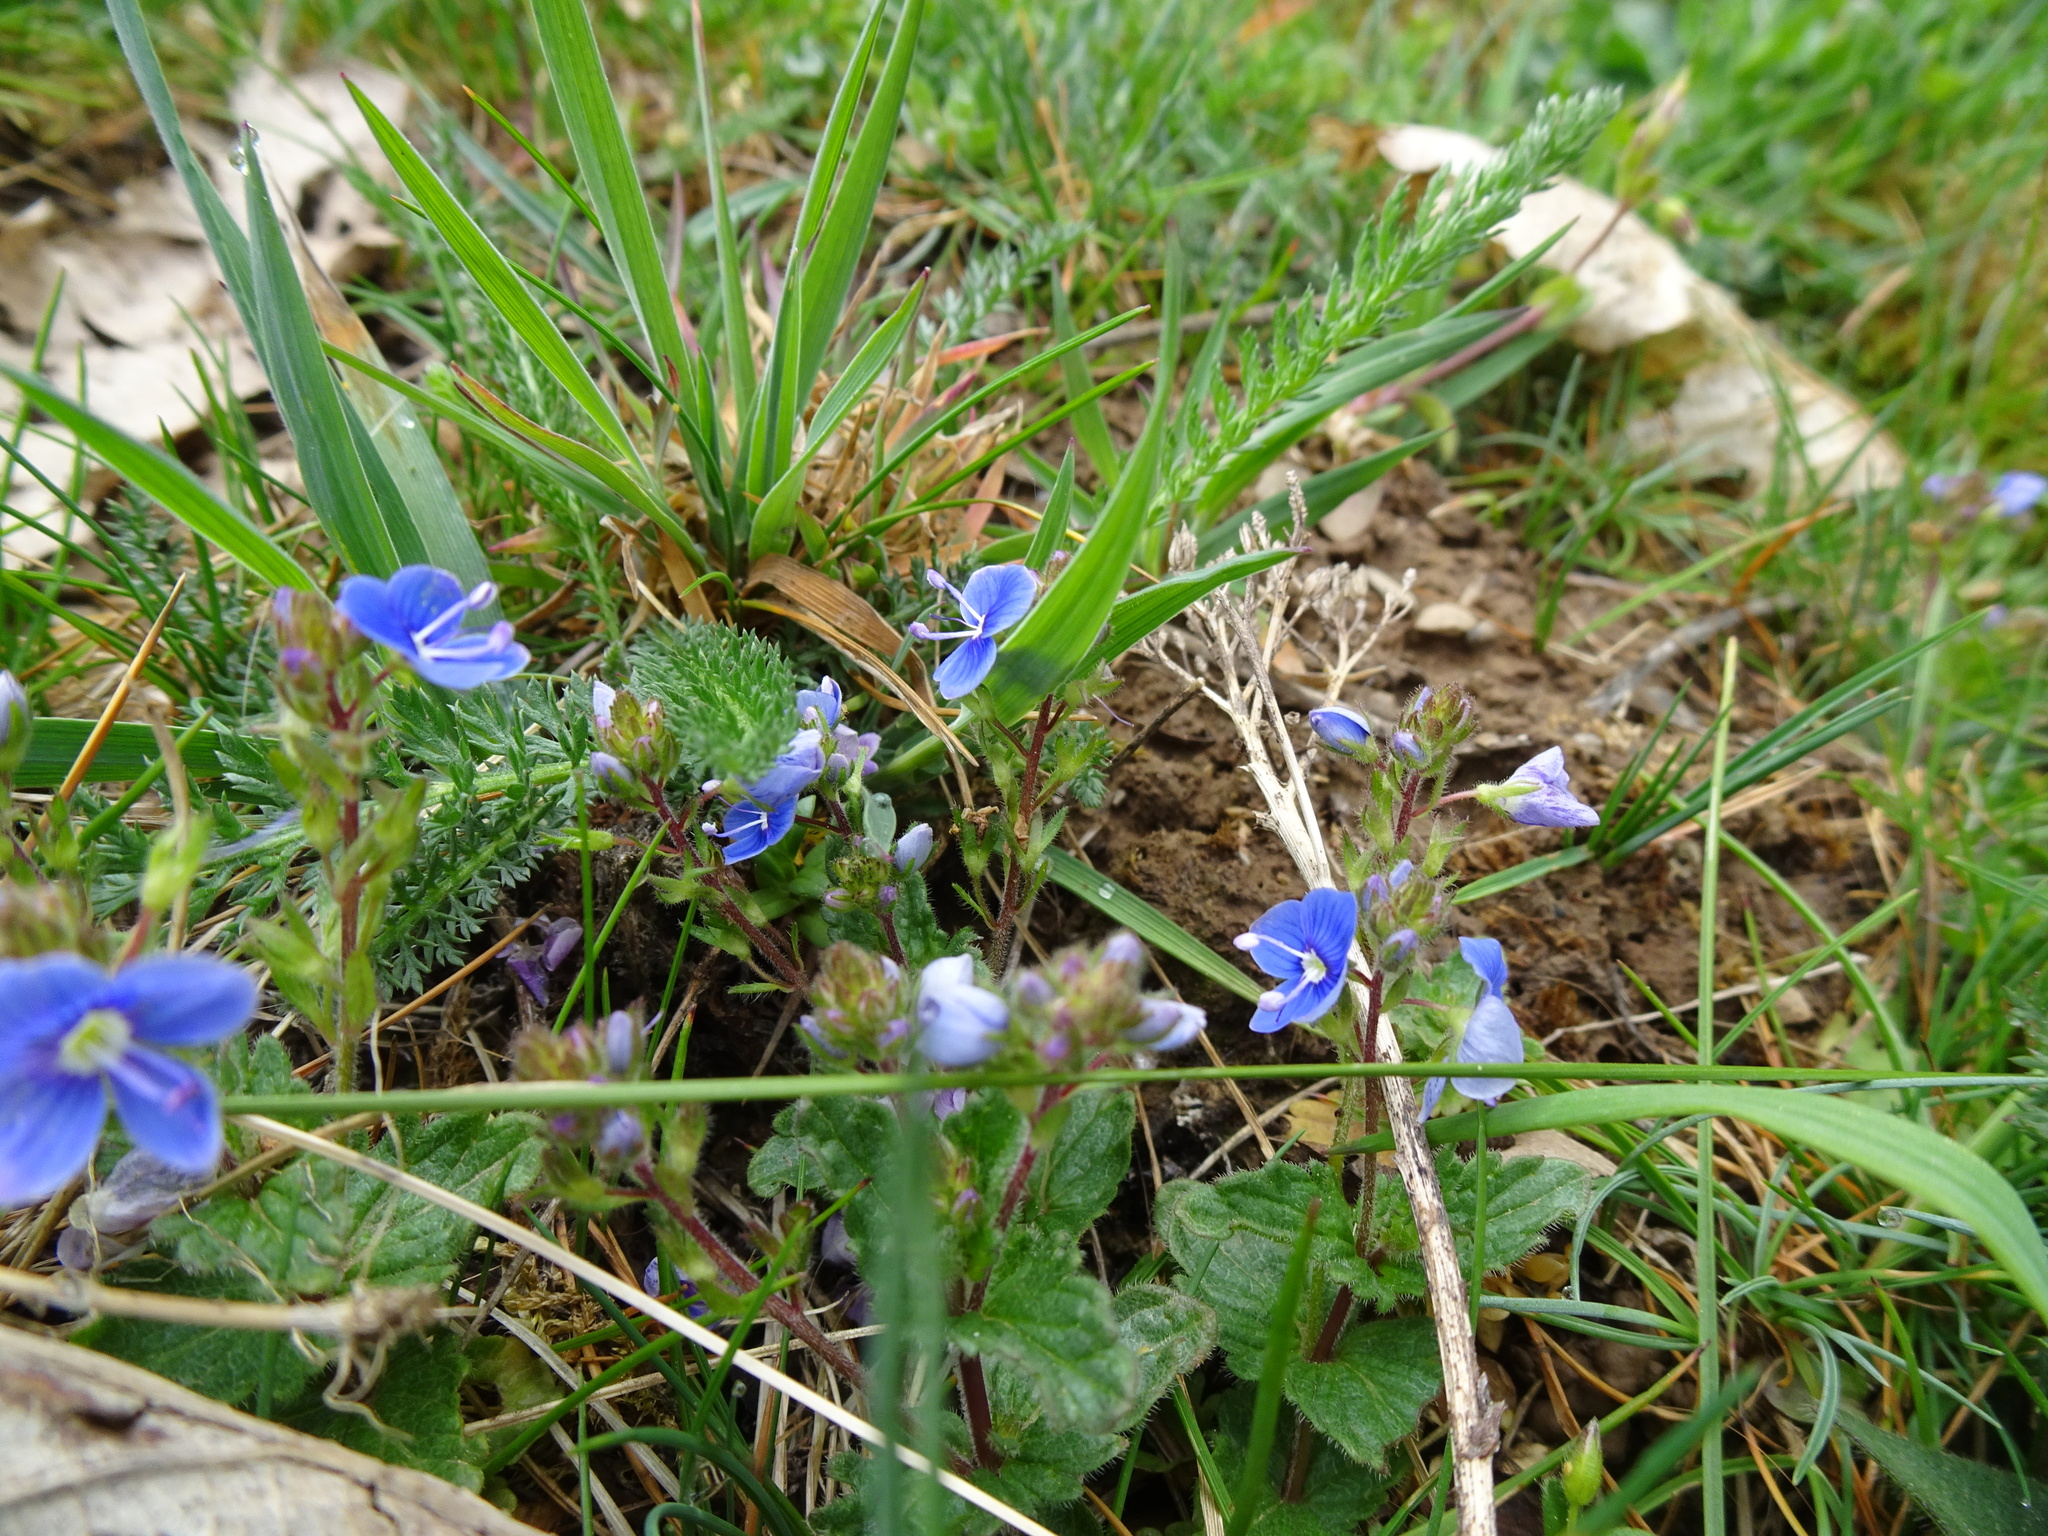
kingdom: Plantae
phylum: Tracheophyta
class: Magnoliopsida
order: Lamiales
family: Plantaginaceae
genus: Veronica
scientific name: Veronica chamaedrys
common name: Germander speedwell
